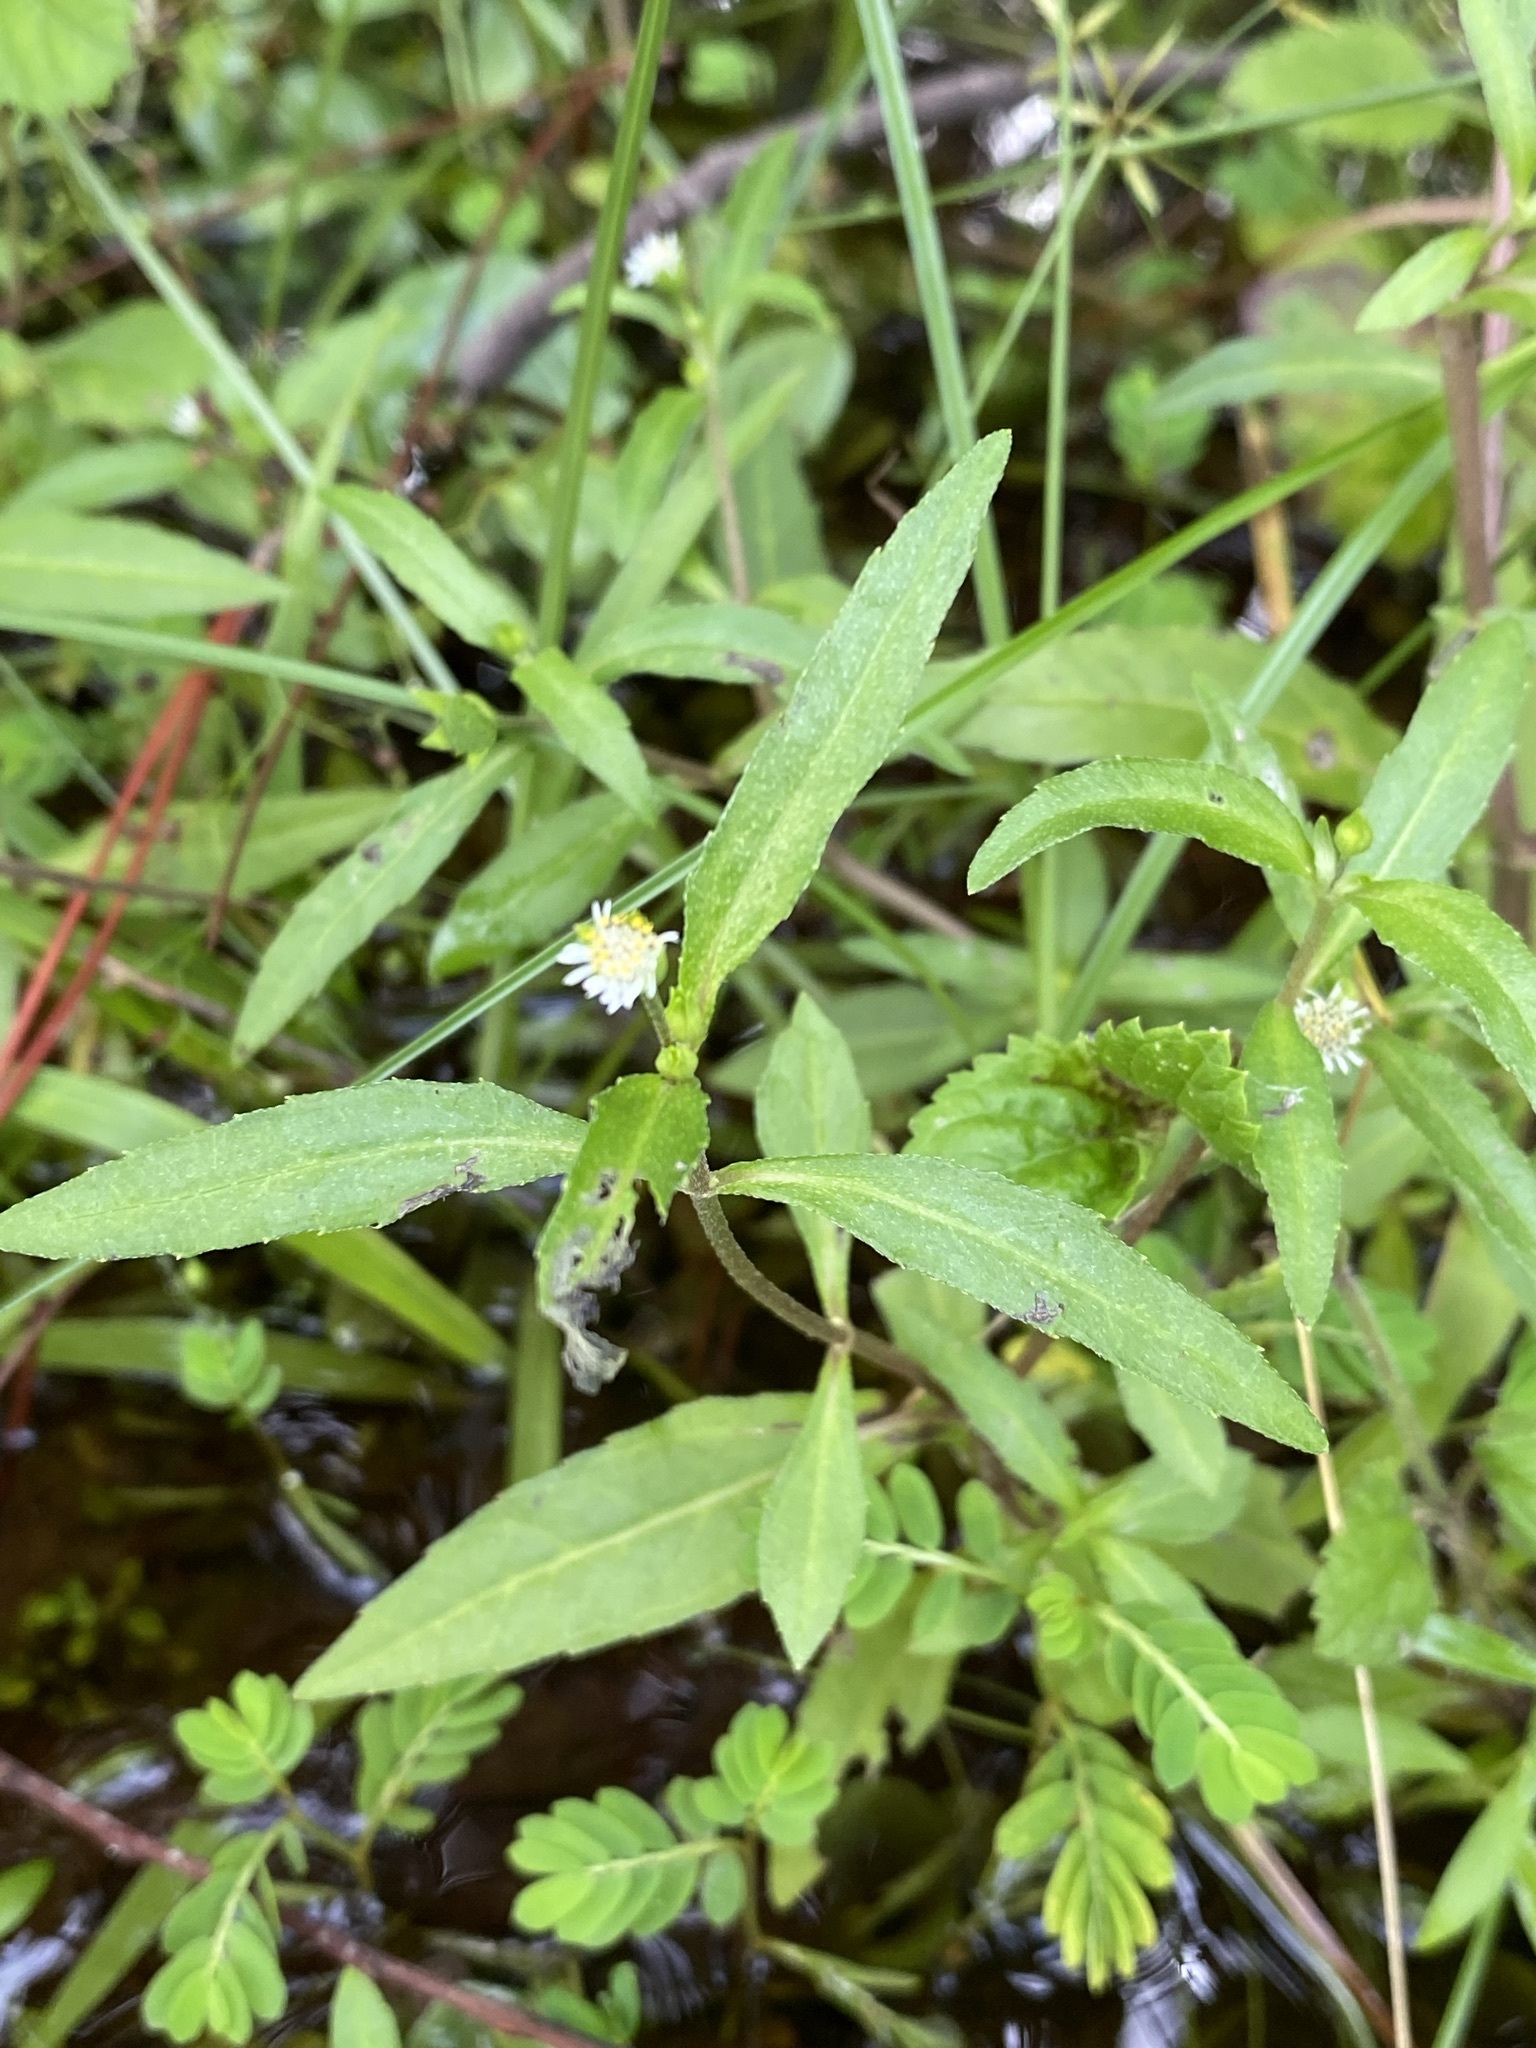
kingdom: Plantae
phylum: Tracheophyta
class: Magnoliopsida
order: Asterales
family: Asteraceae
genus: Eclipta
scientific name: Eclipta prostrata
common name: False daisy
